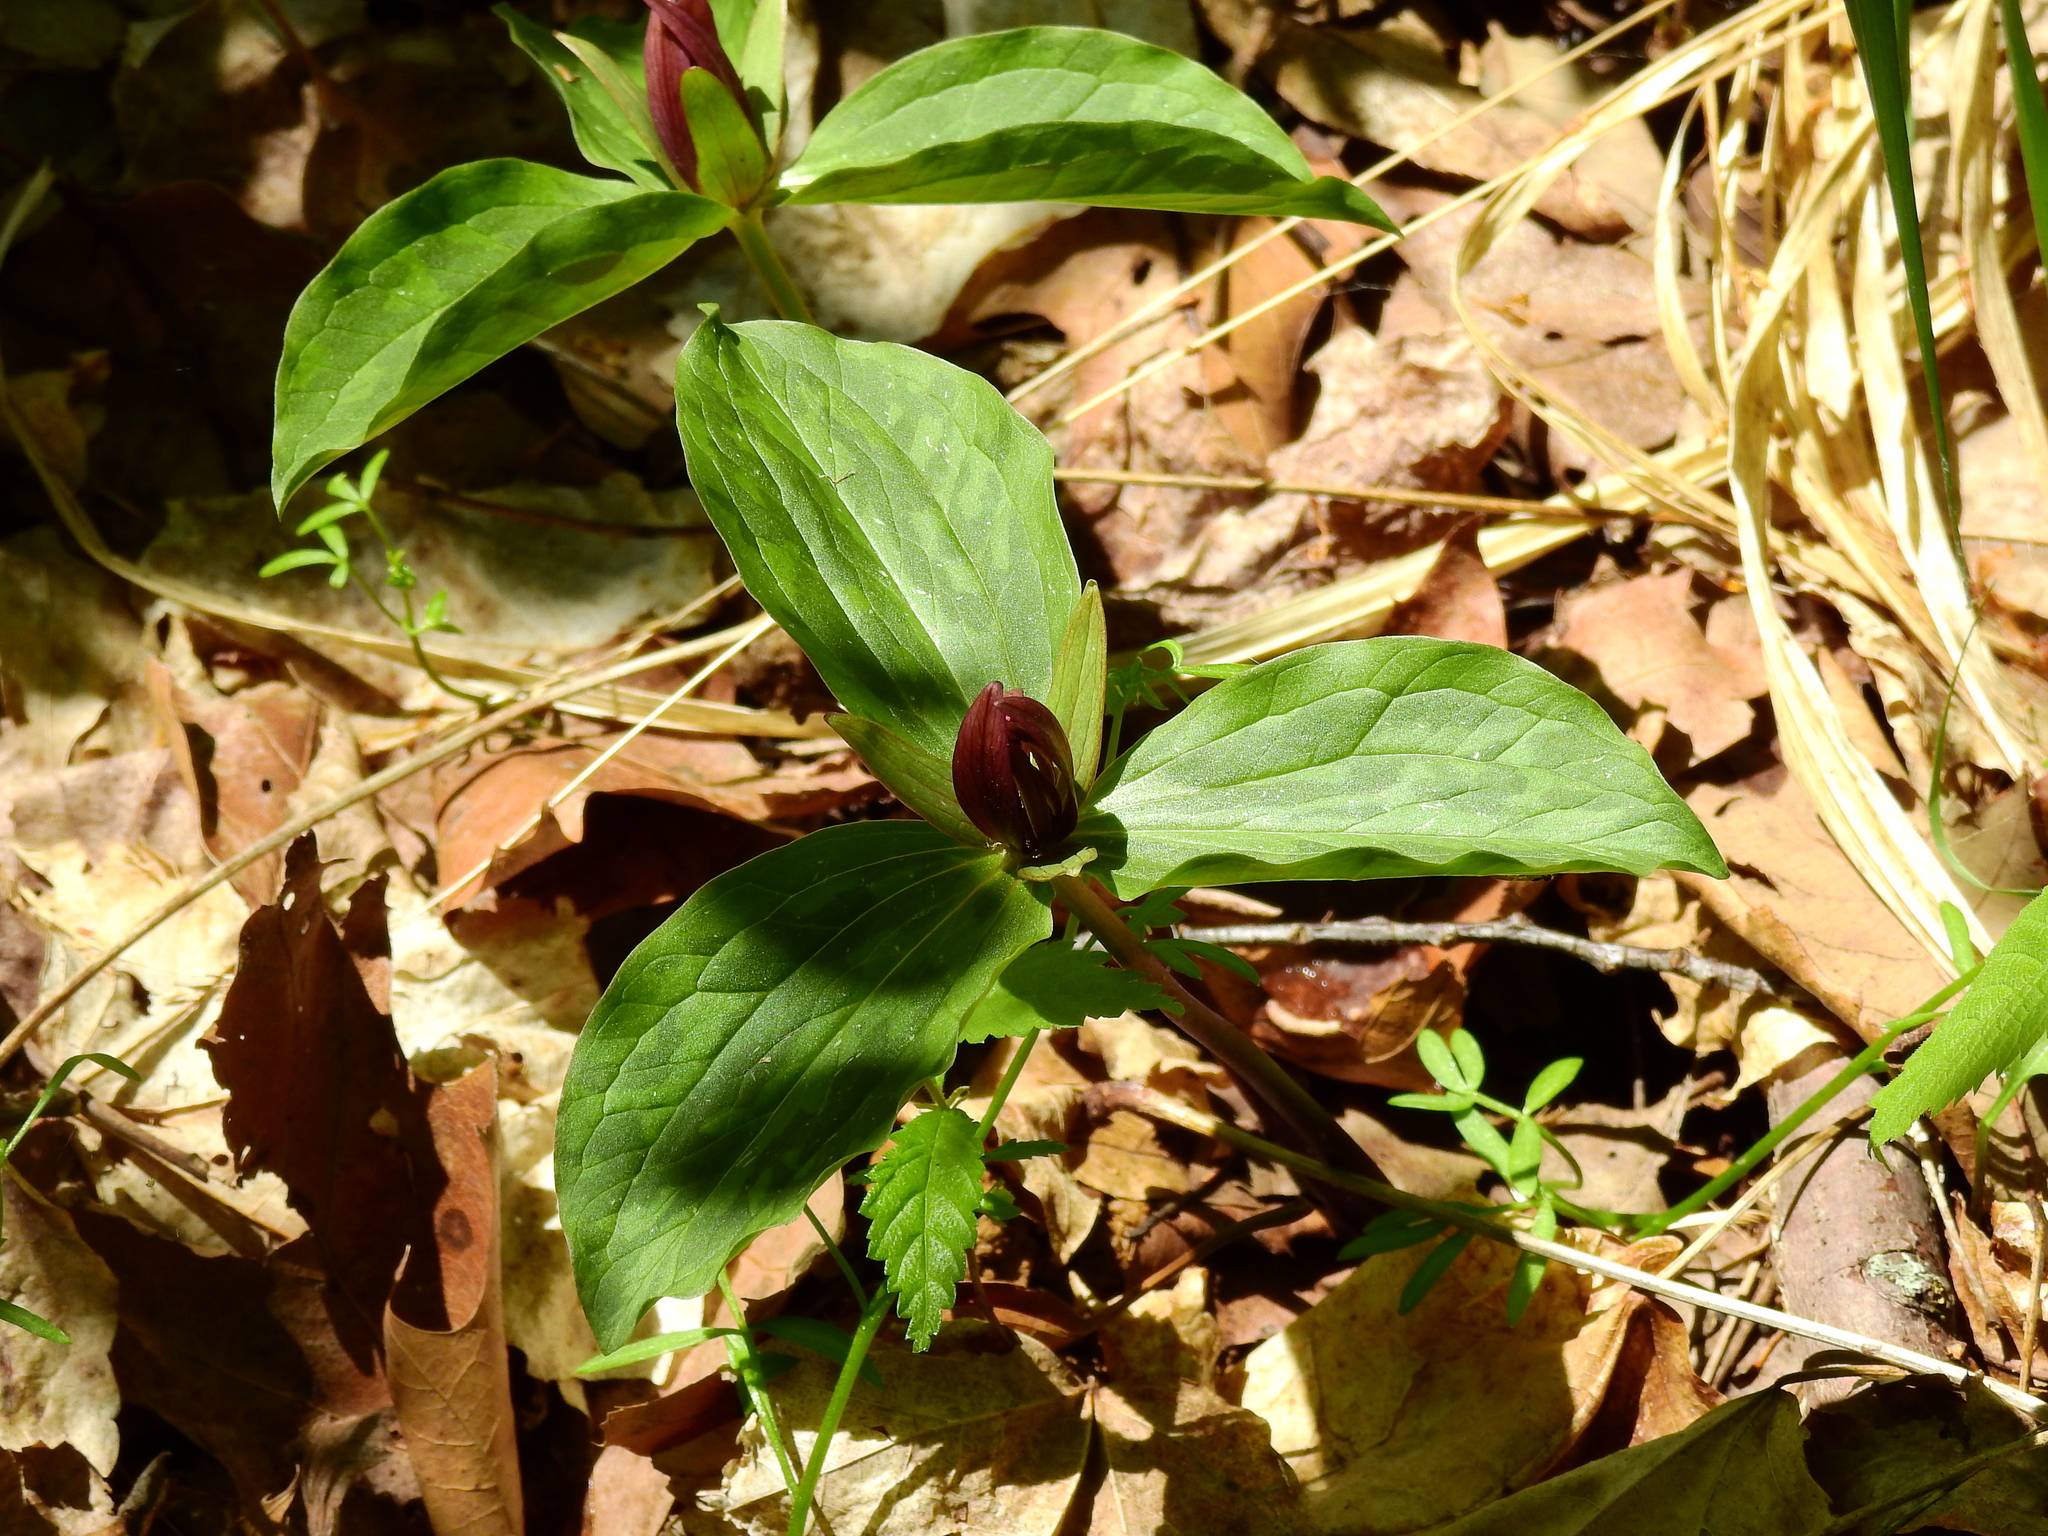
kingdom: Plantae
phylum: Tracheophyta
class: Liliopsida
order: Liliales
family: Melanthiaceae
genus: Trillium
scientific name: Trillium sessile
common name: Sessile trillium
